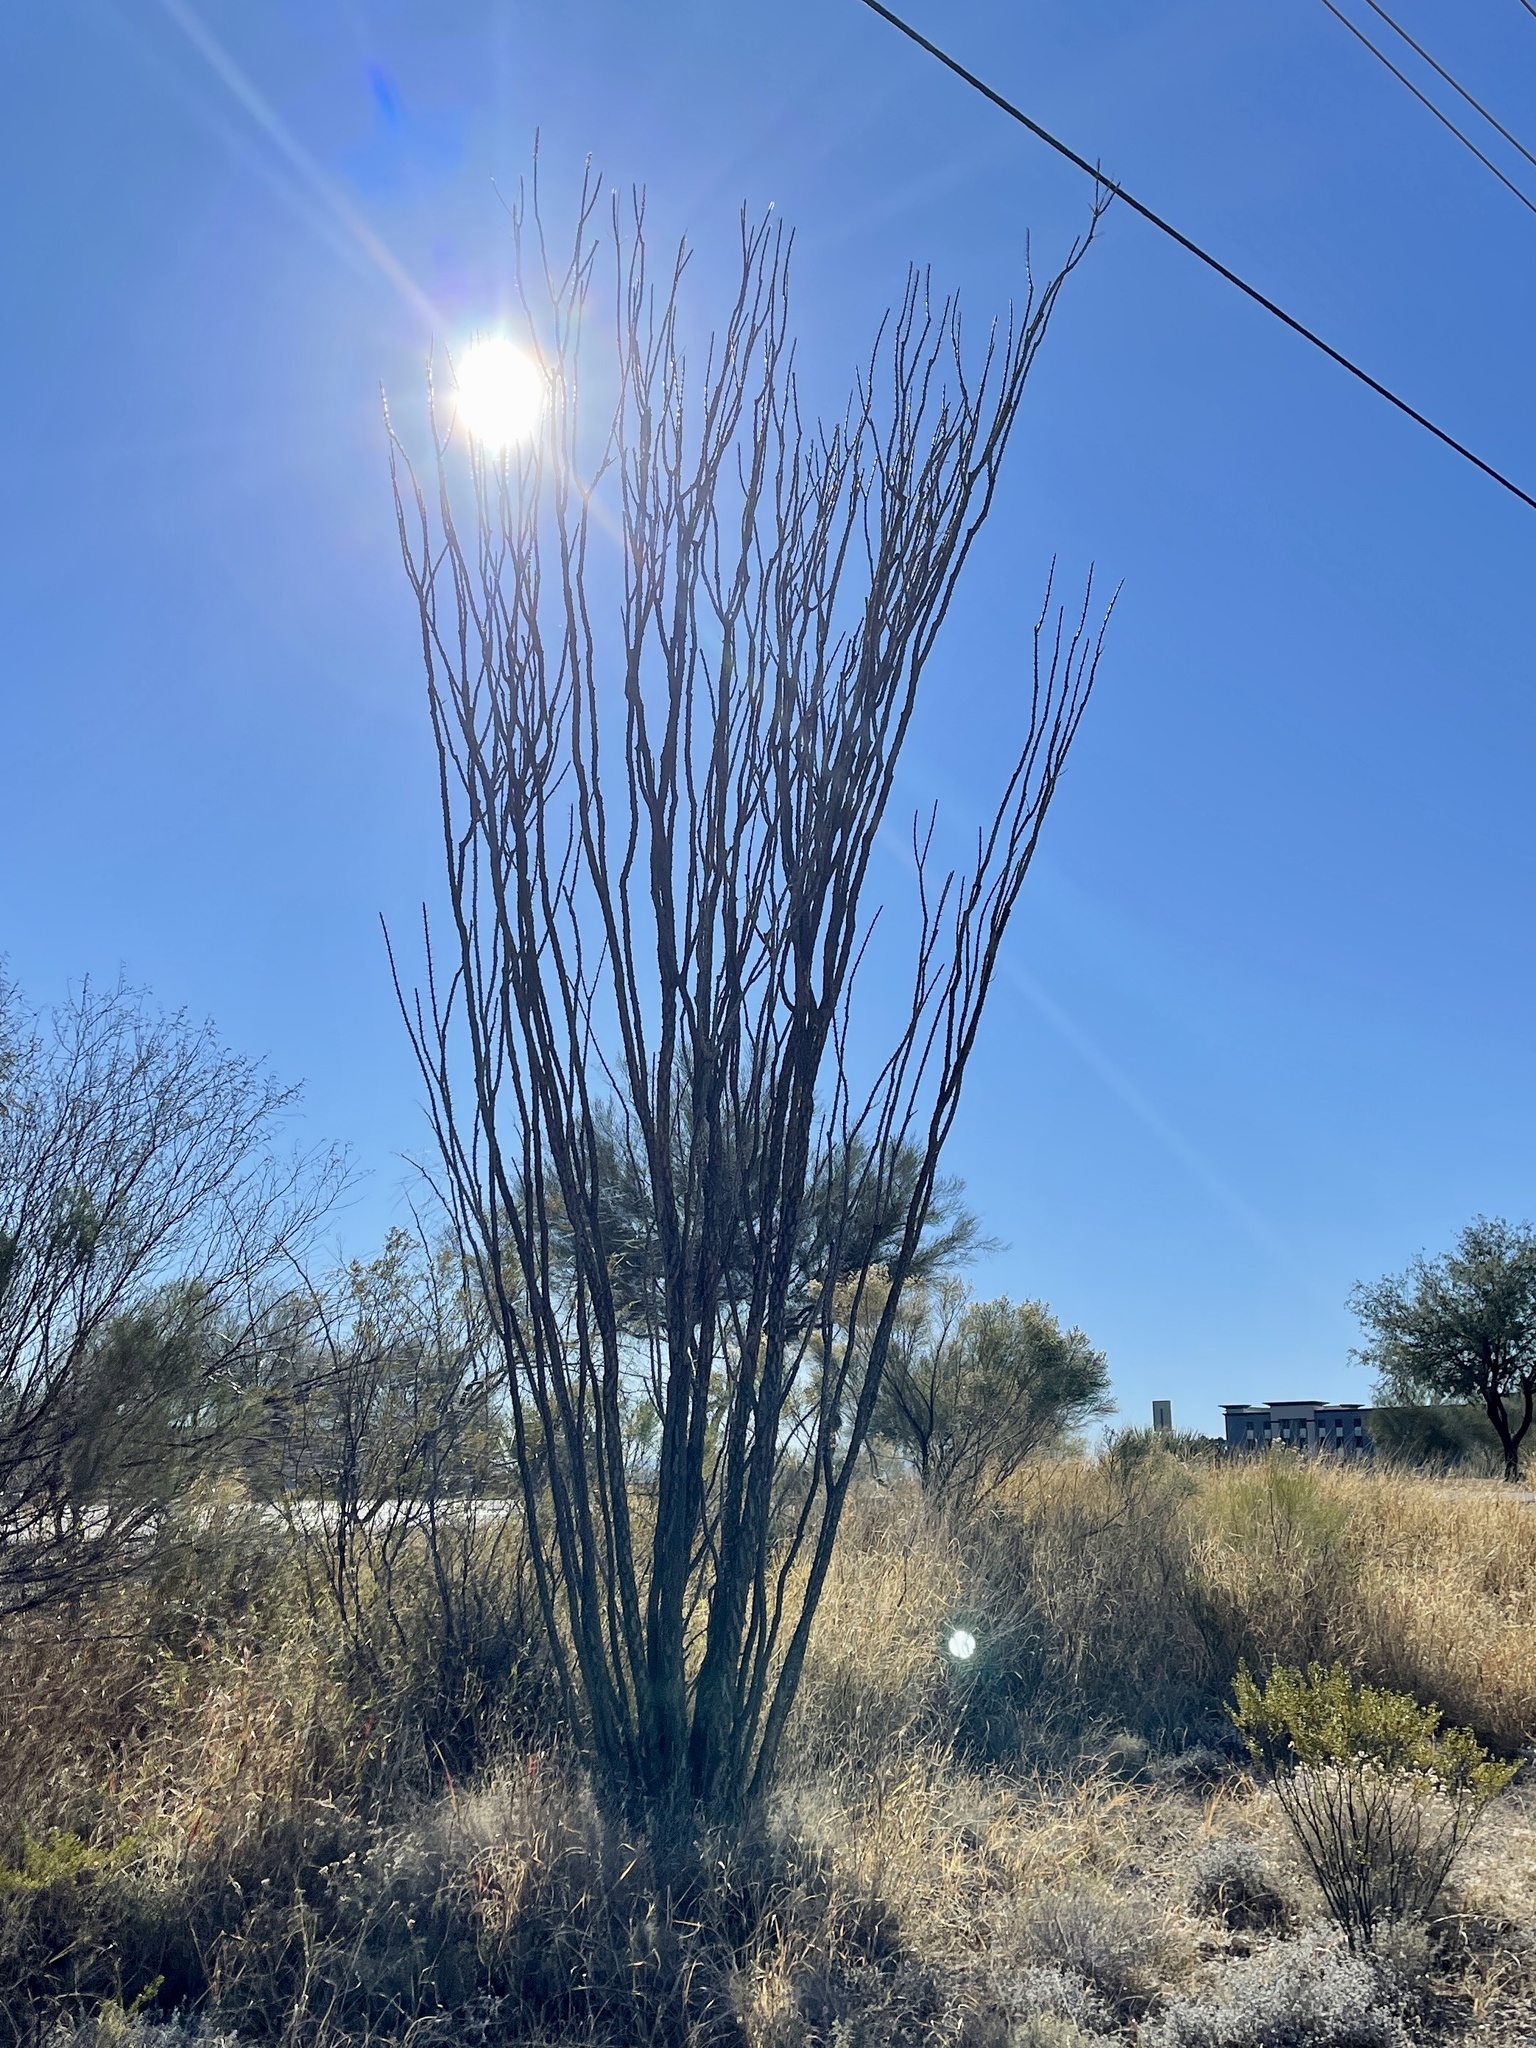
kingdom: Plantae
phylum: Tracheophyta
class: Magnoliopsida
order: Ericales
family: Fouquieriaceae
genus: Fouquieria
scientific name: Fouquieria splendens
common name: Vine-cactus
